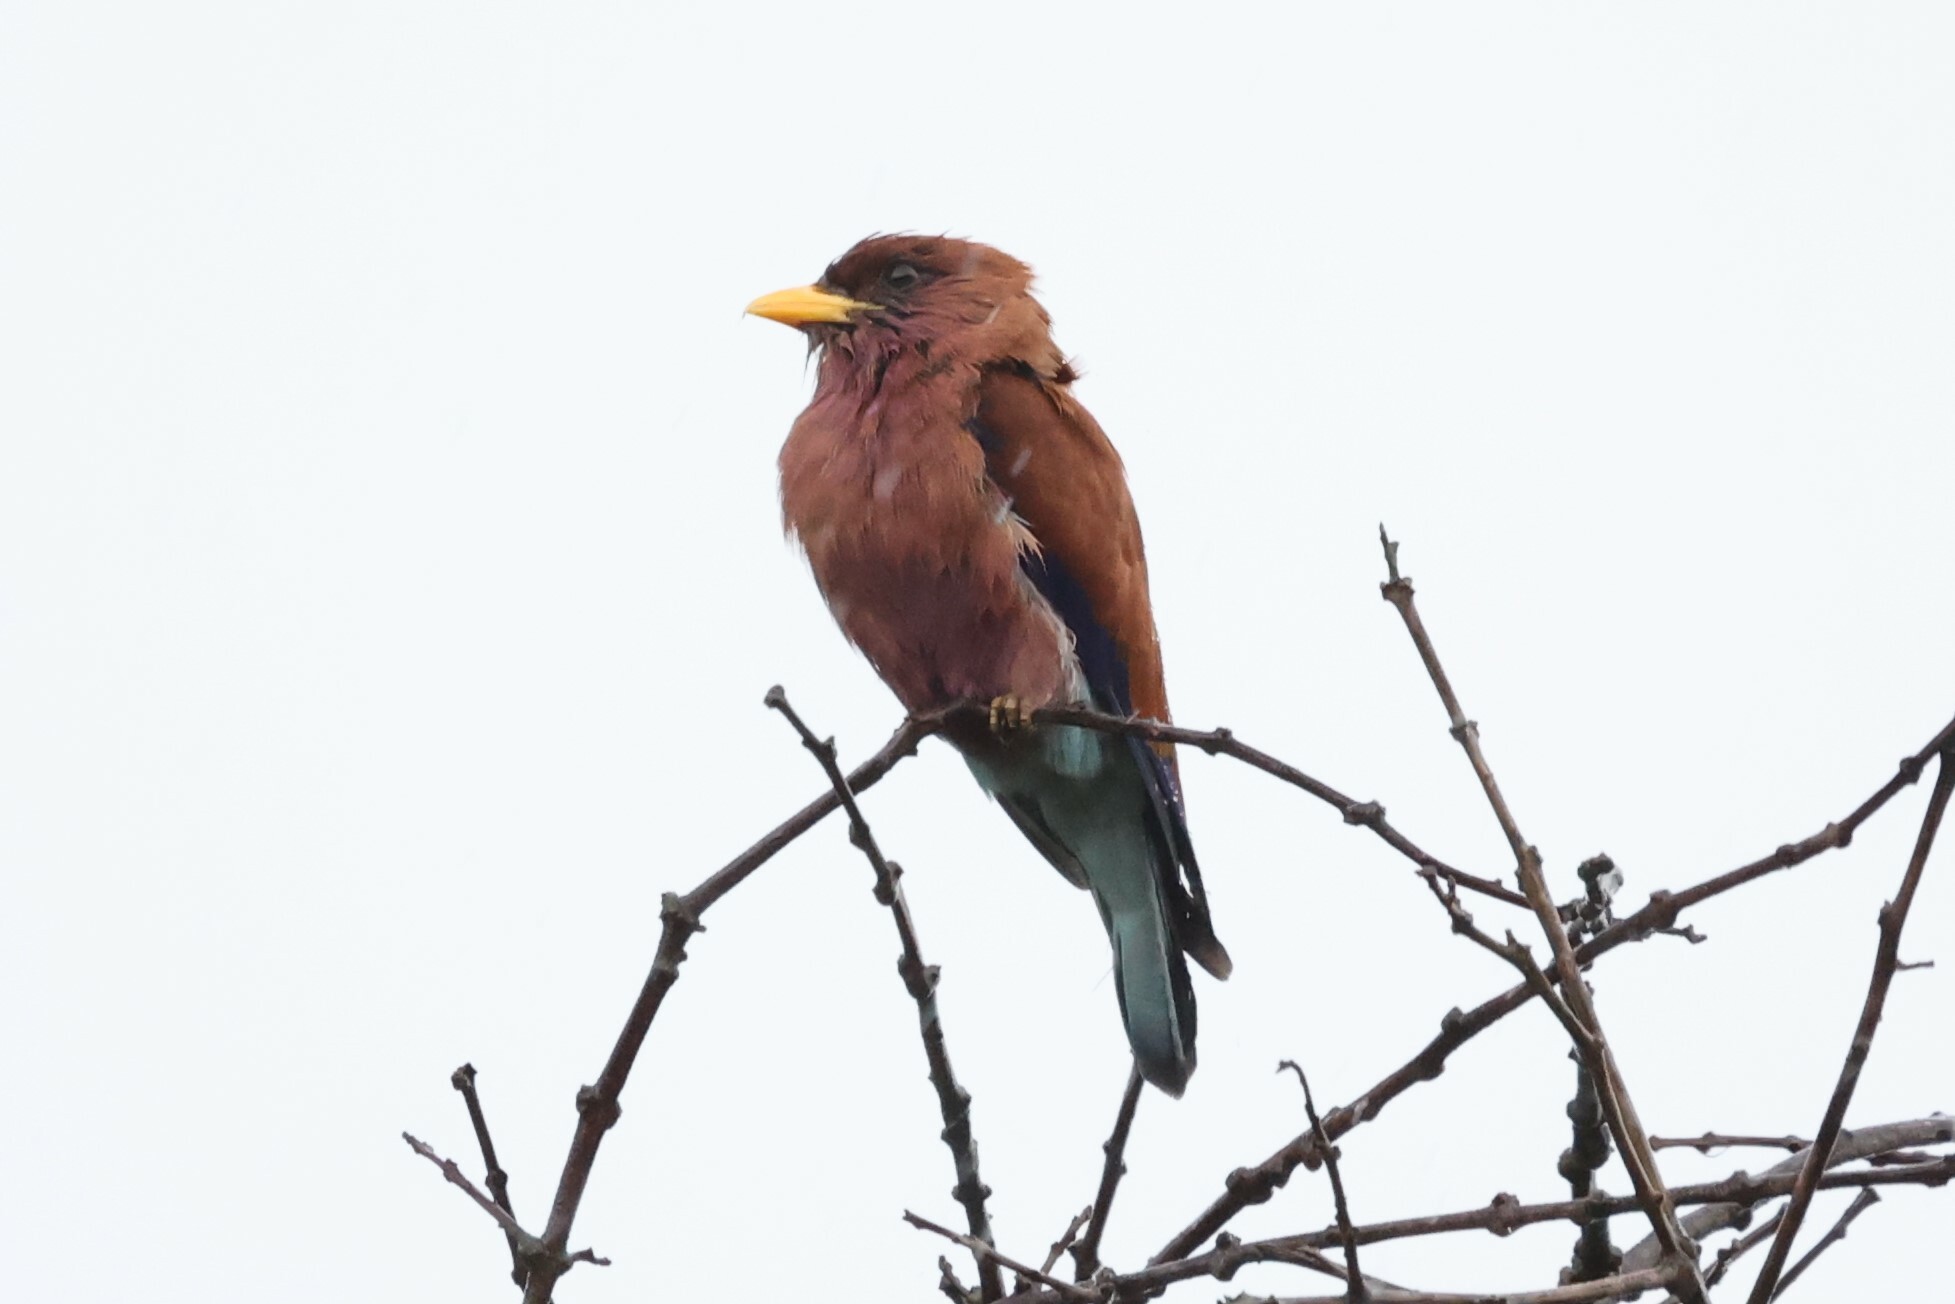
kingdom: Animalia
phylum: Chordata
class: Aves
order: Coraciiformes
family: Coraciidae
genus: Eurystomus
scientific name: Eurystomus glaucurus
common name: Broad-billed roller
